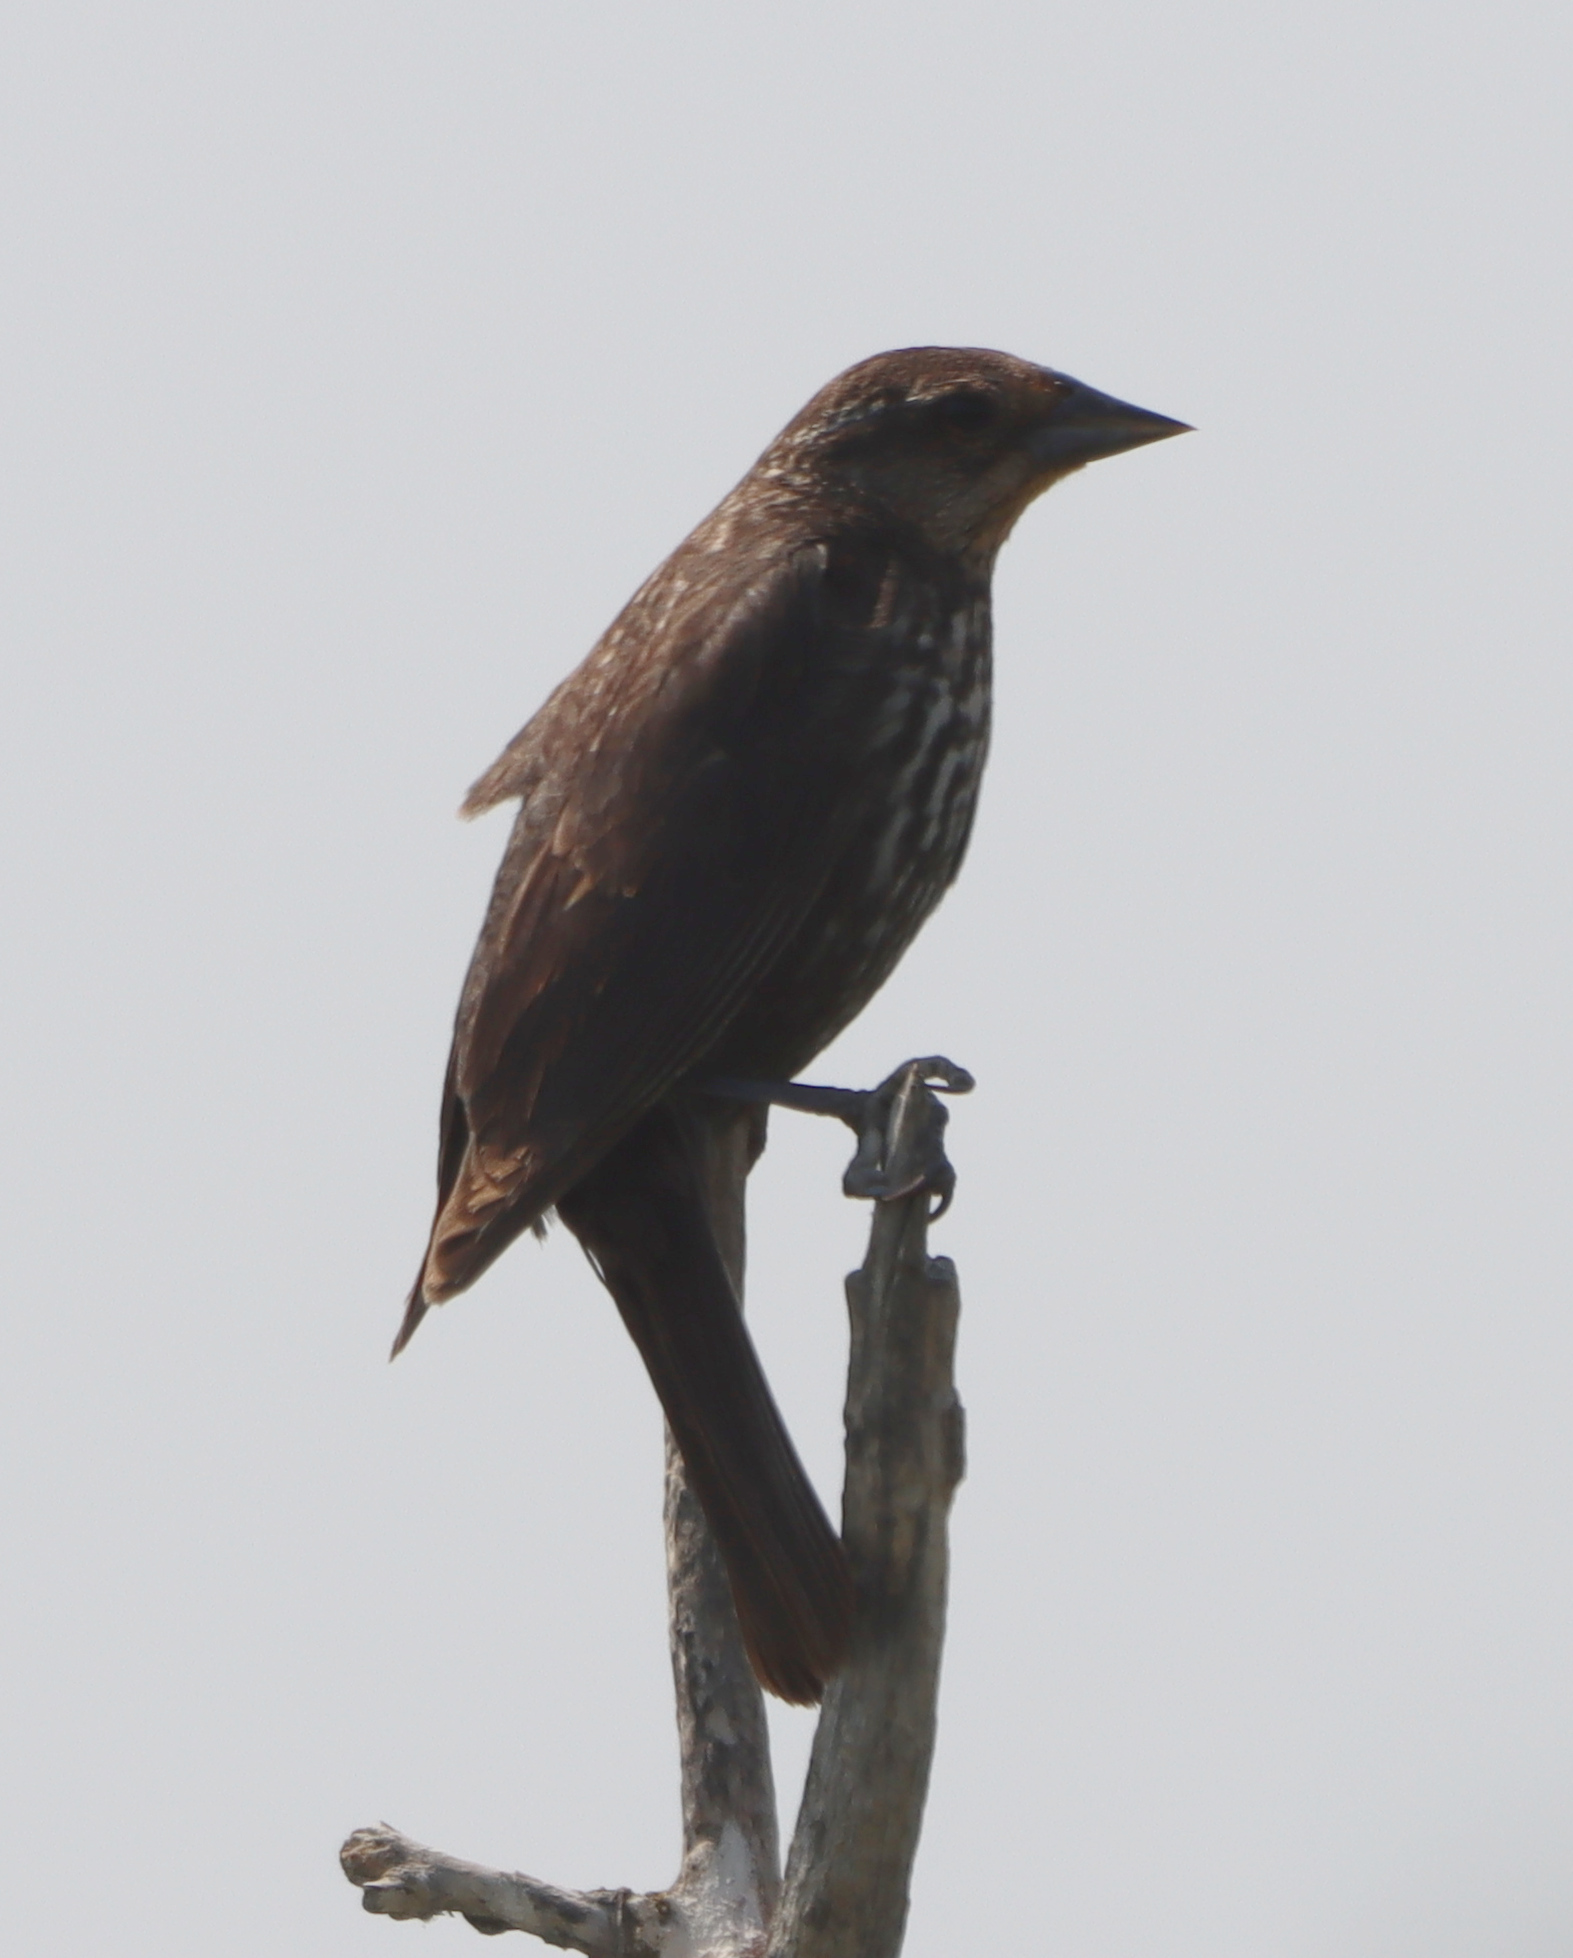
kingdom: Animalia
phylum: Chordata
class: Aves
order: Passeriformes
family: Icteridae
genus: Agelaius
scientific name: Agelaius phoeniceus
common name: Red-winged blackbird
